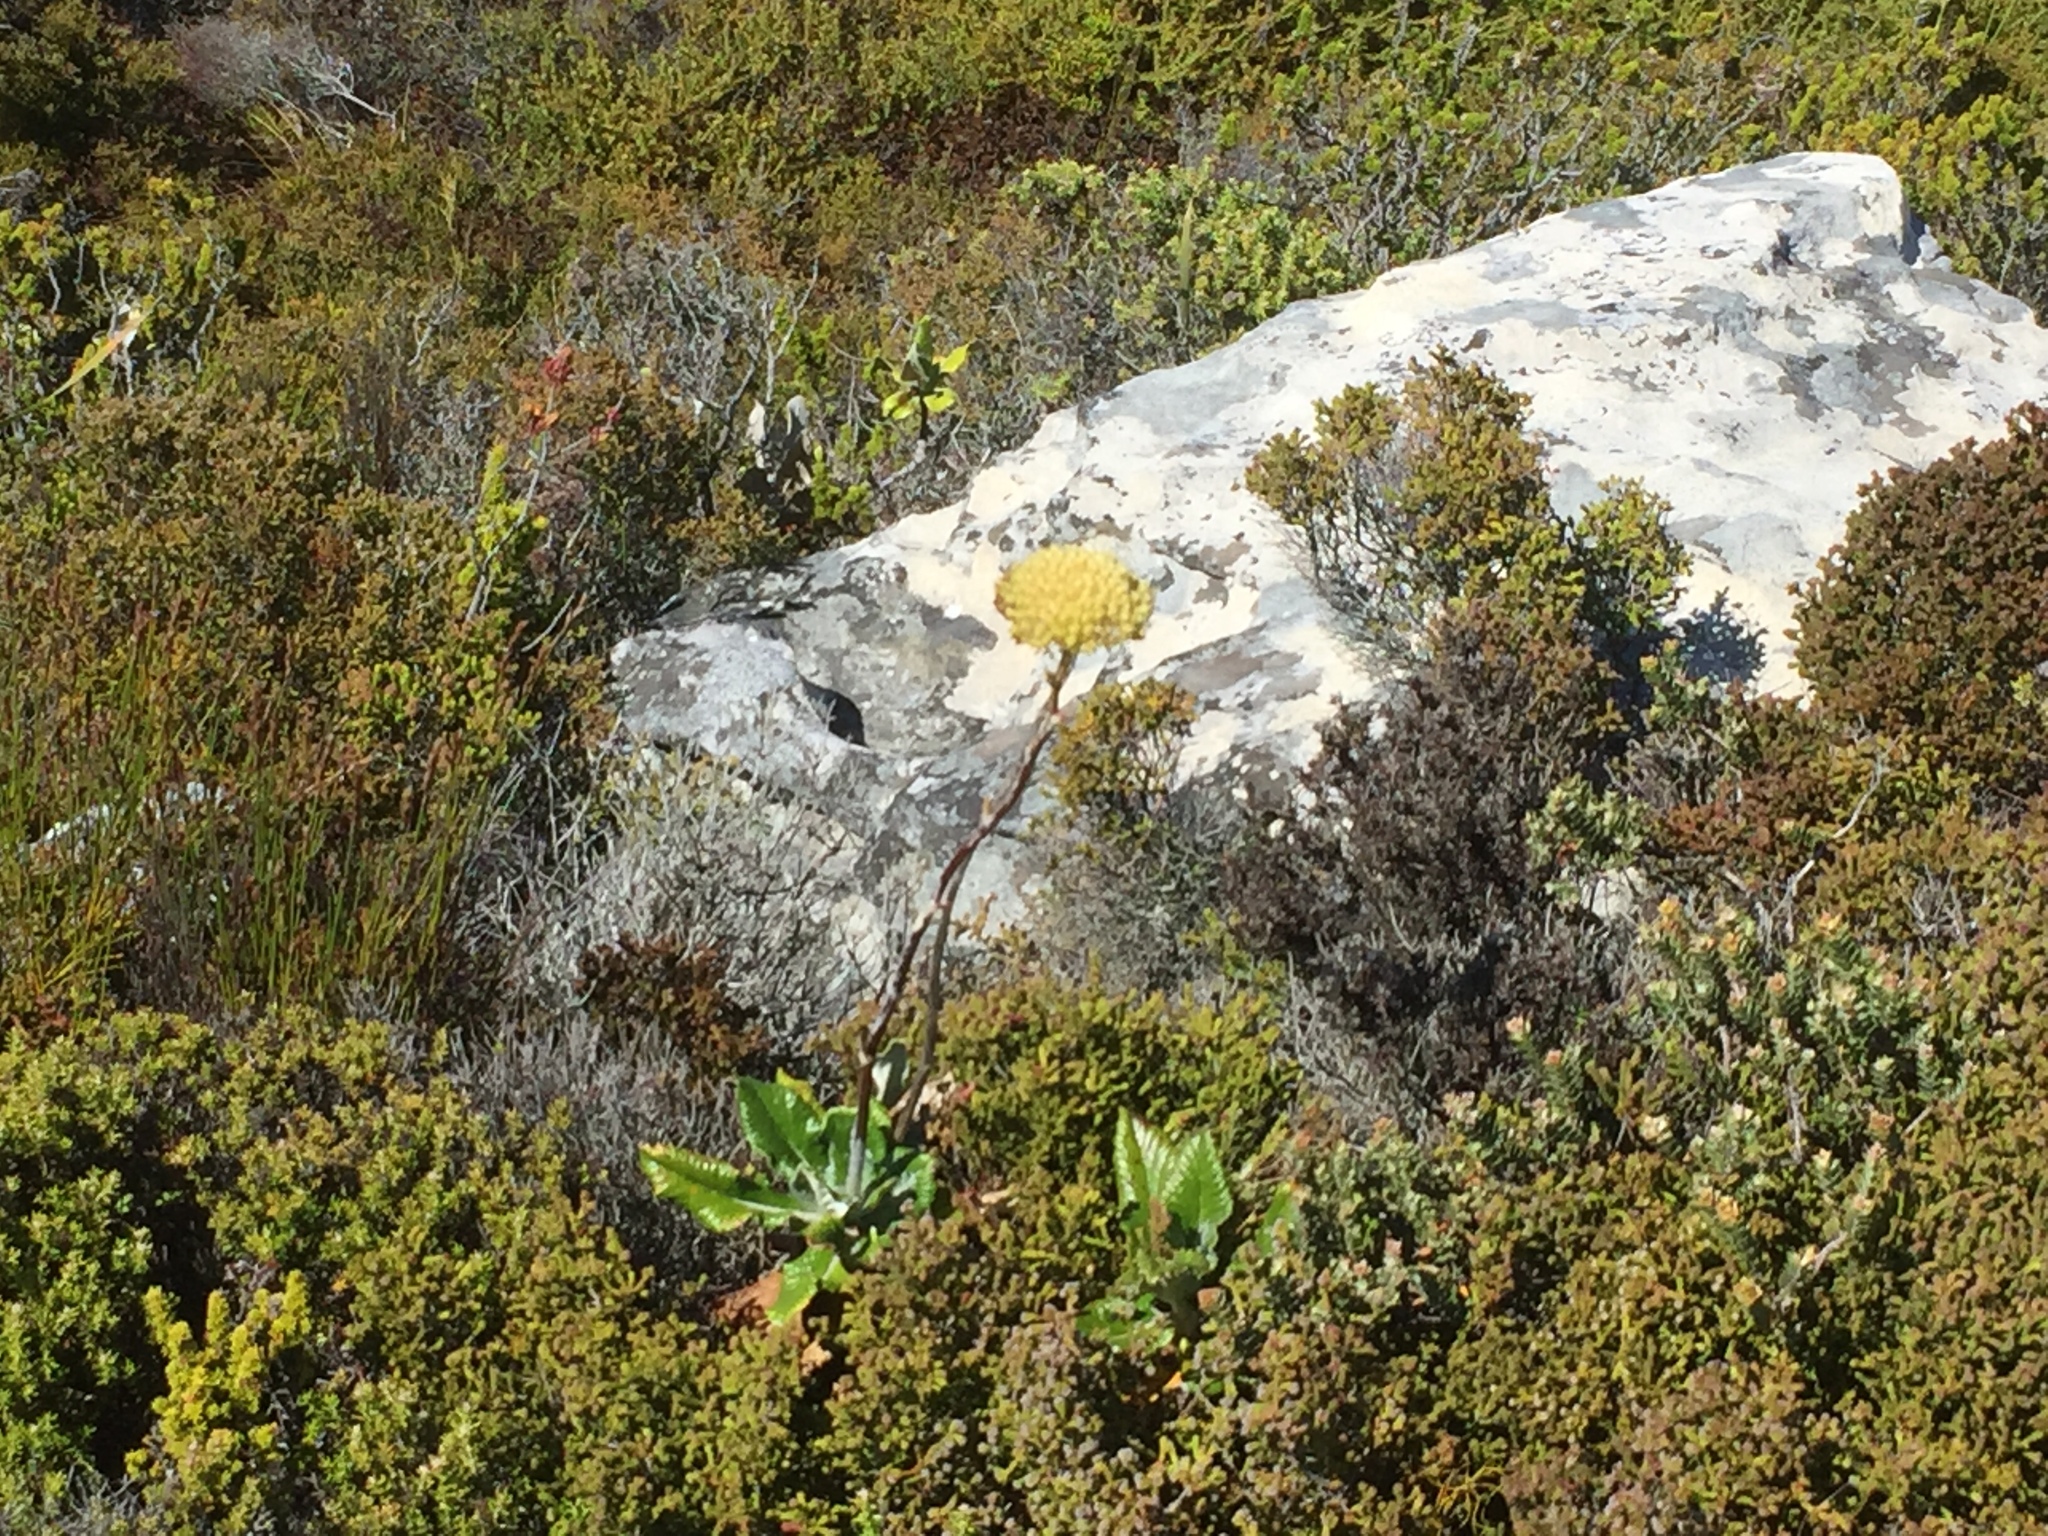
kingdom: Plantae
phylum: Tracheophyta
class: Magnoliopsida
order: Apiales
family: Apiaceae
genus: Hermas
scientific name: Hermas villosa
